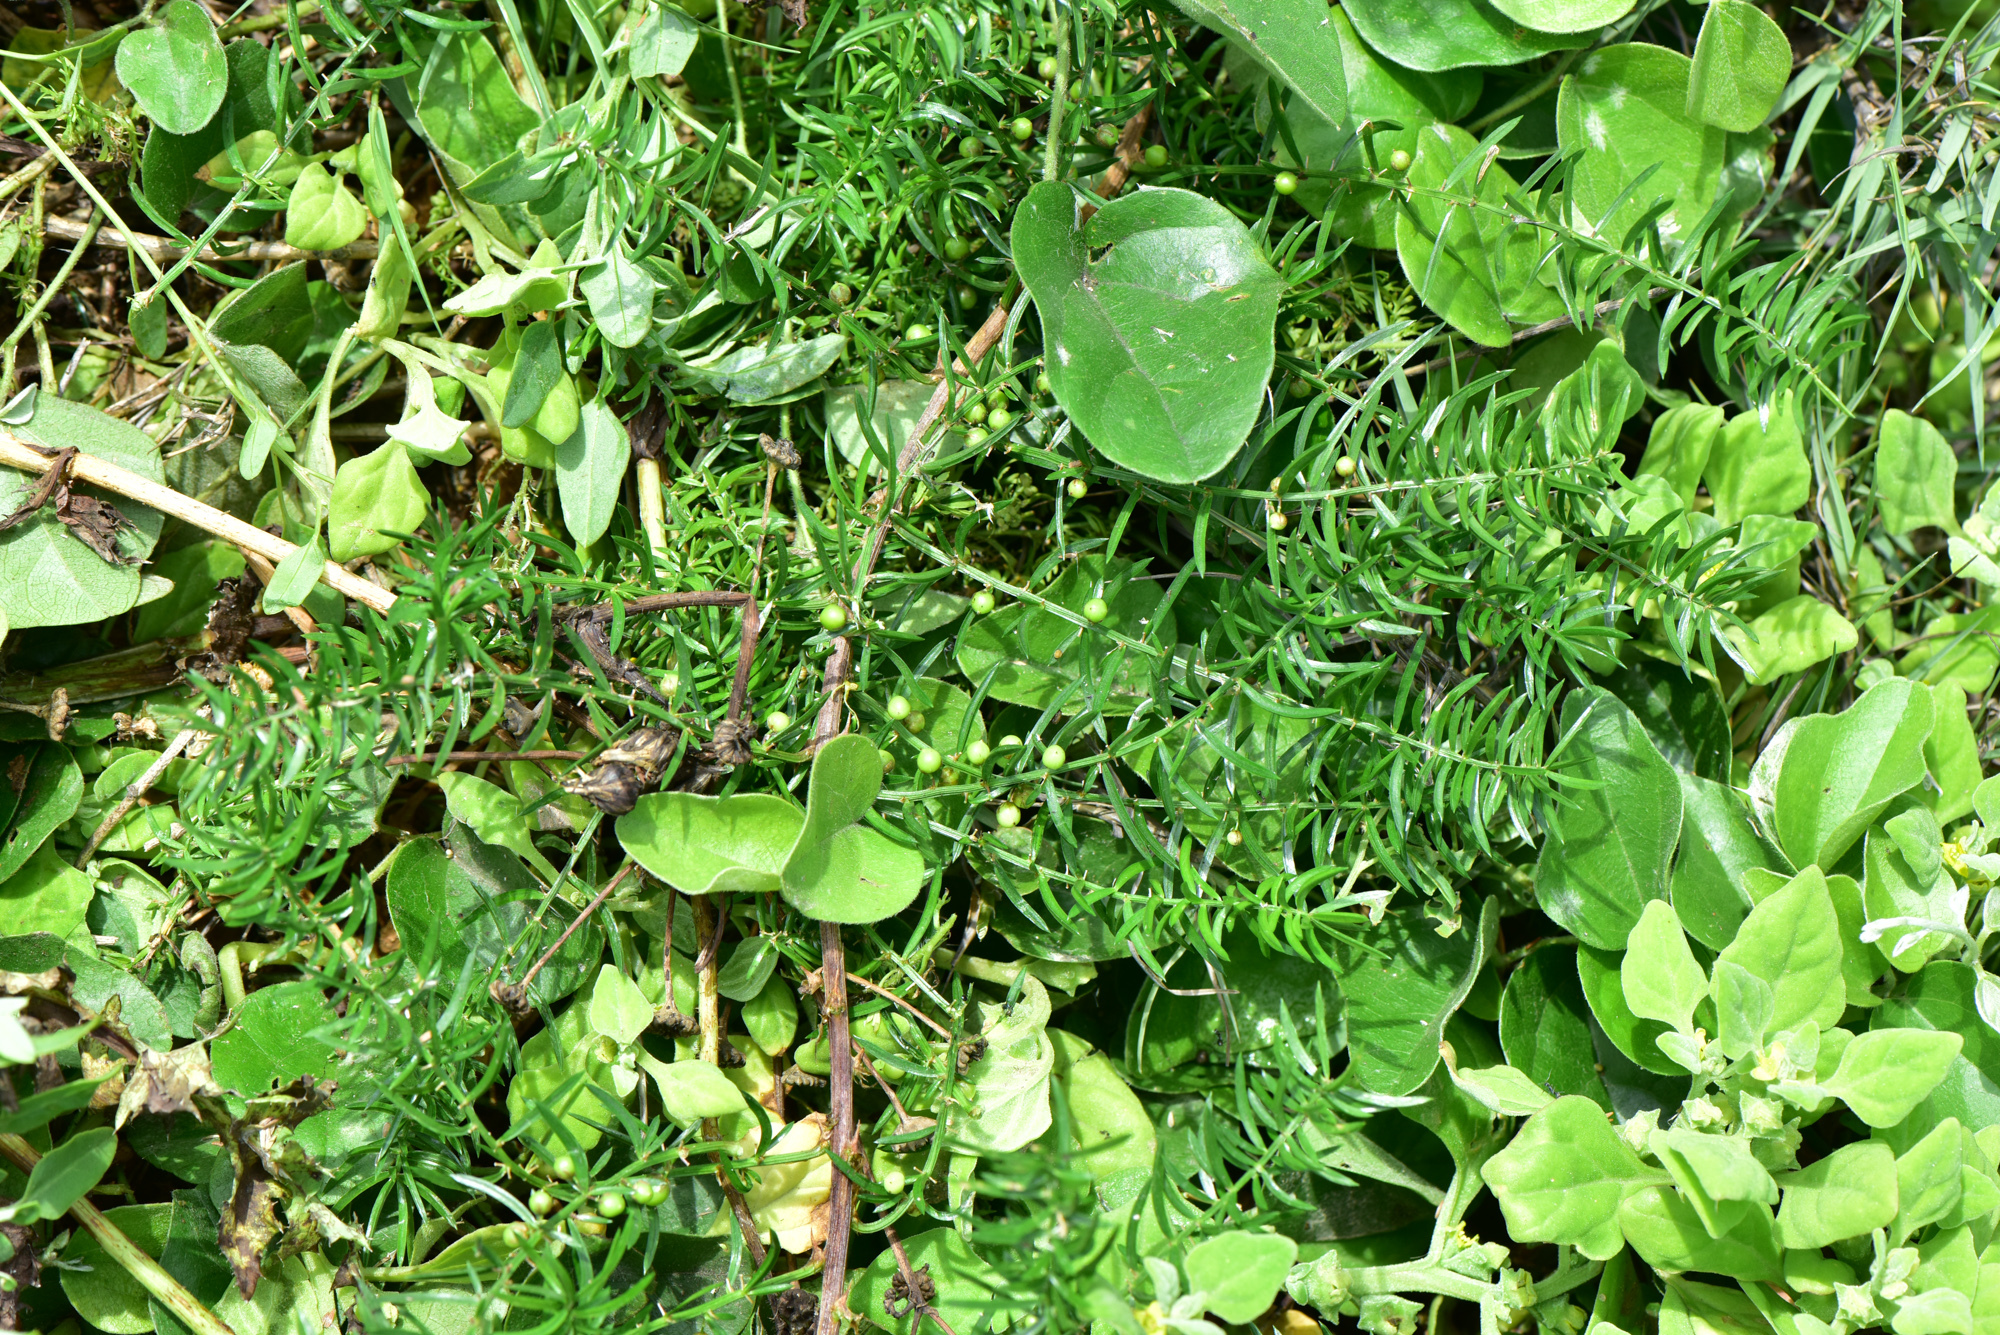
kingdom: Plantae
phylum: Tracheophyta
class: Liliopsida
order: Asparagales
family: Asparagaceae
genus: Asparagus
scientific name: Asparagus cochinchinensis
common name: Chinese asparagus
